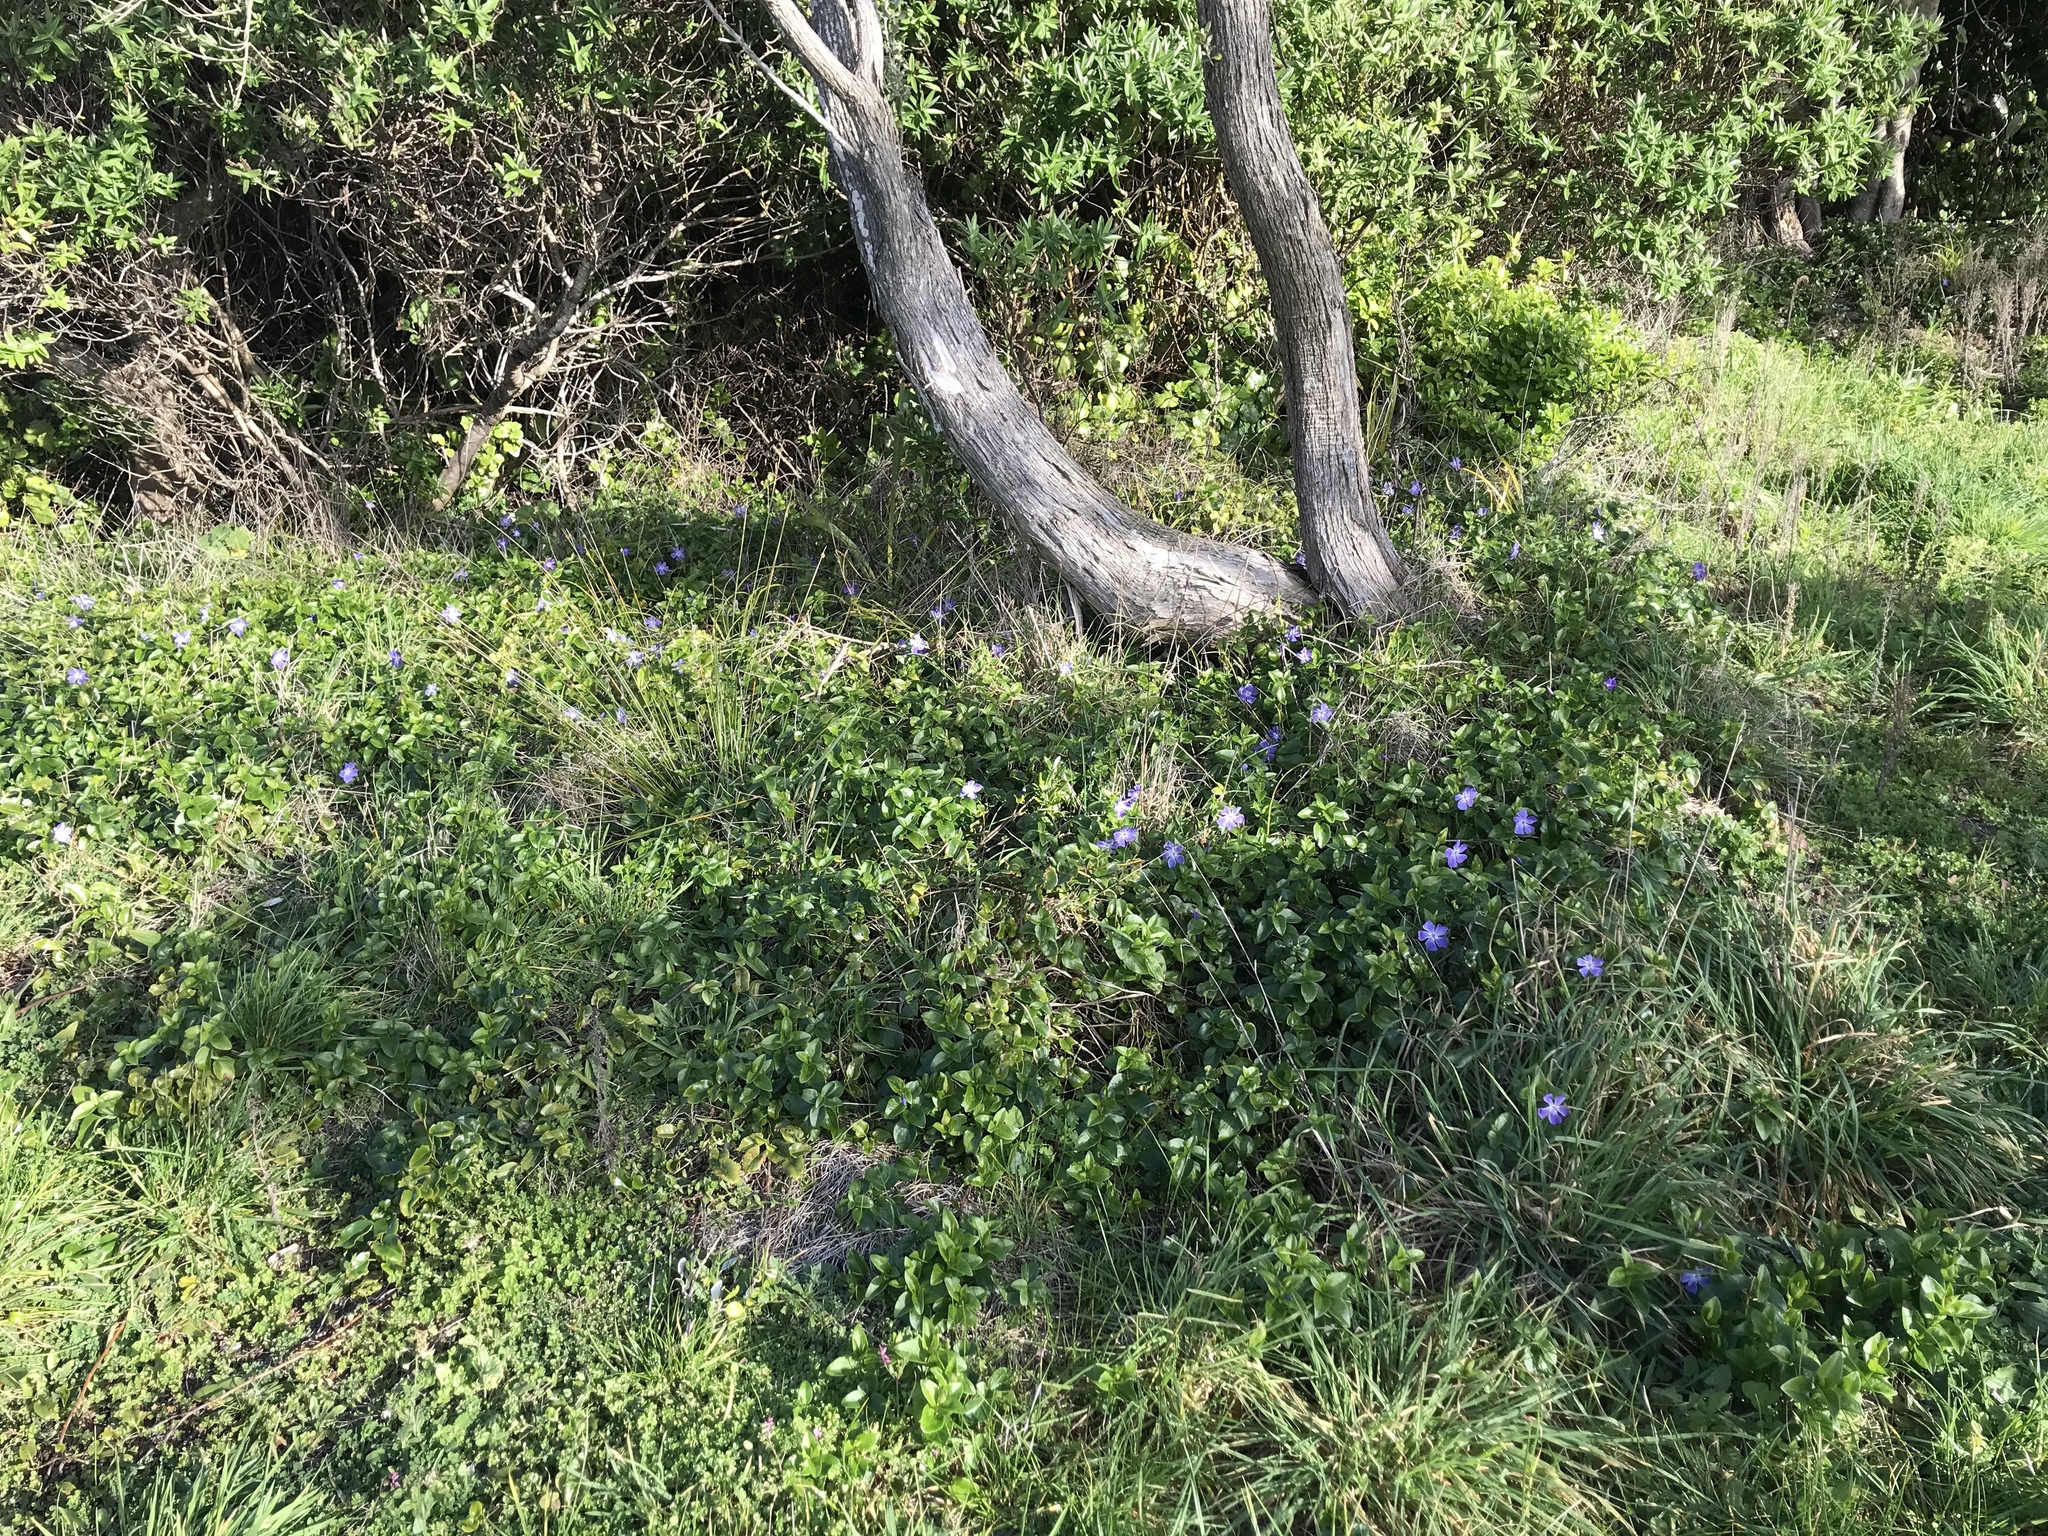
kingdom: Plantae
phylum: Tracheophyta
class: Magnoliopsida
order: Gentianales
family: Apocynaceae
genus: Vinca
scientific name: Vinca major
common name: Greater periwinkle
